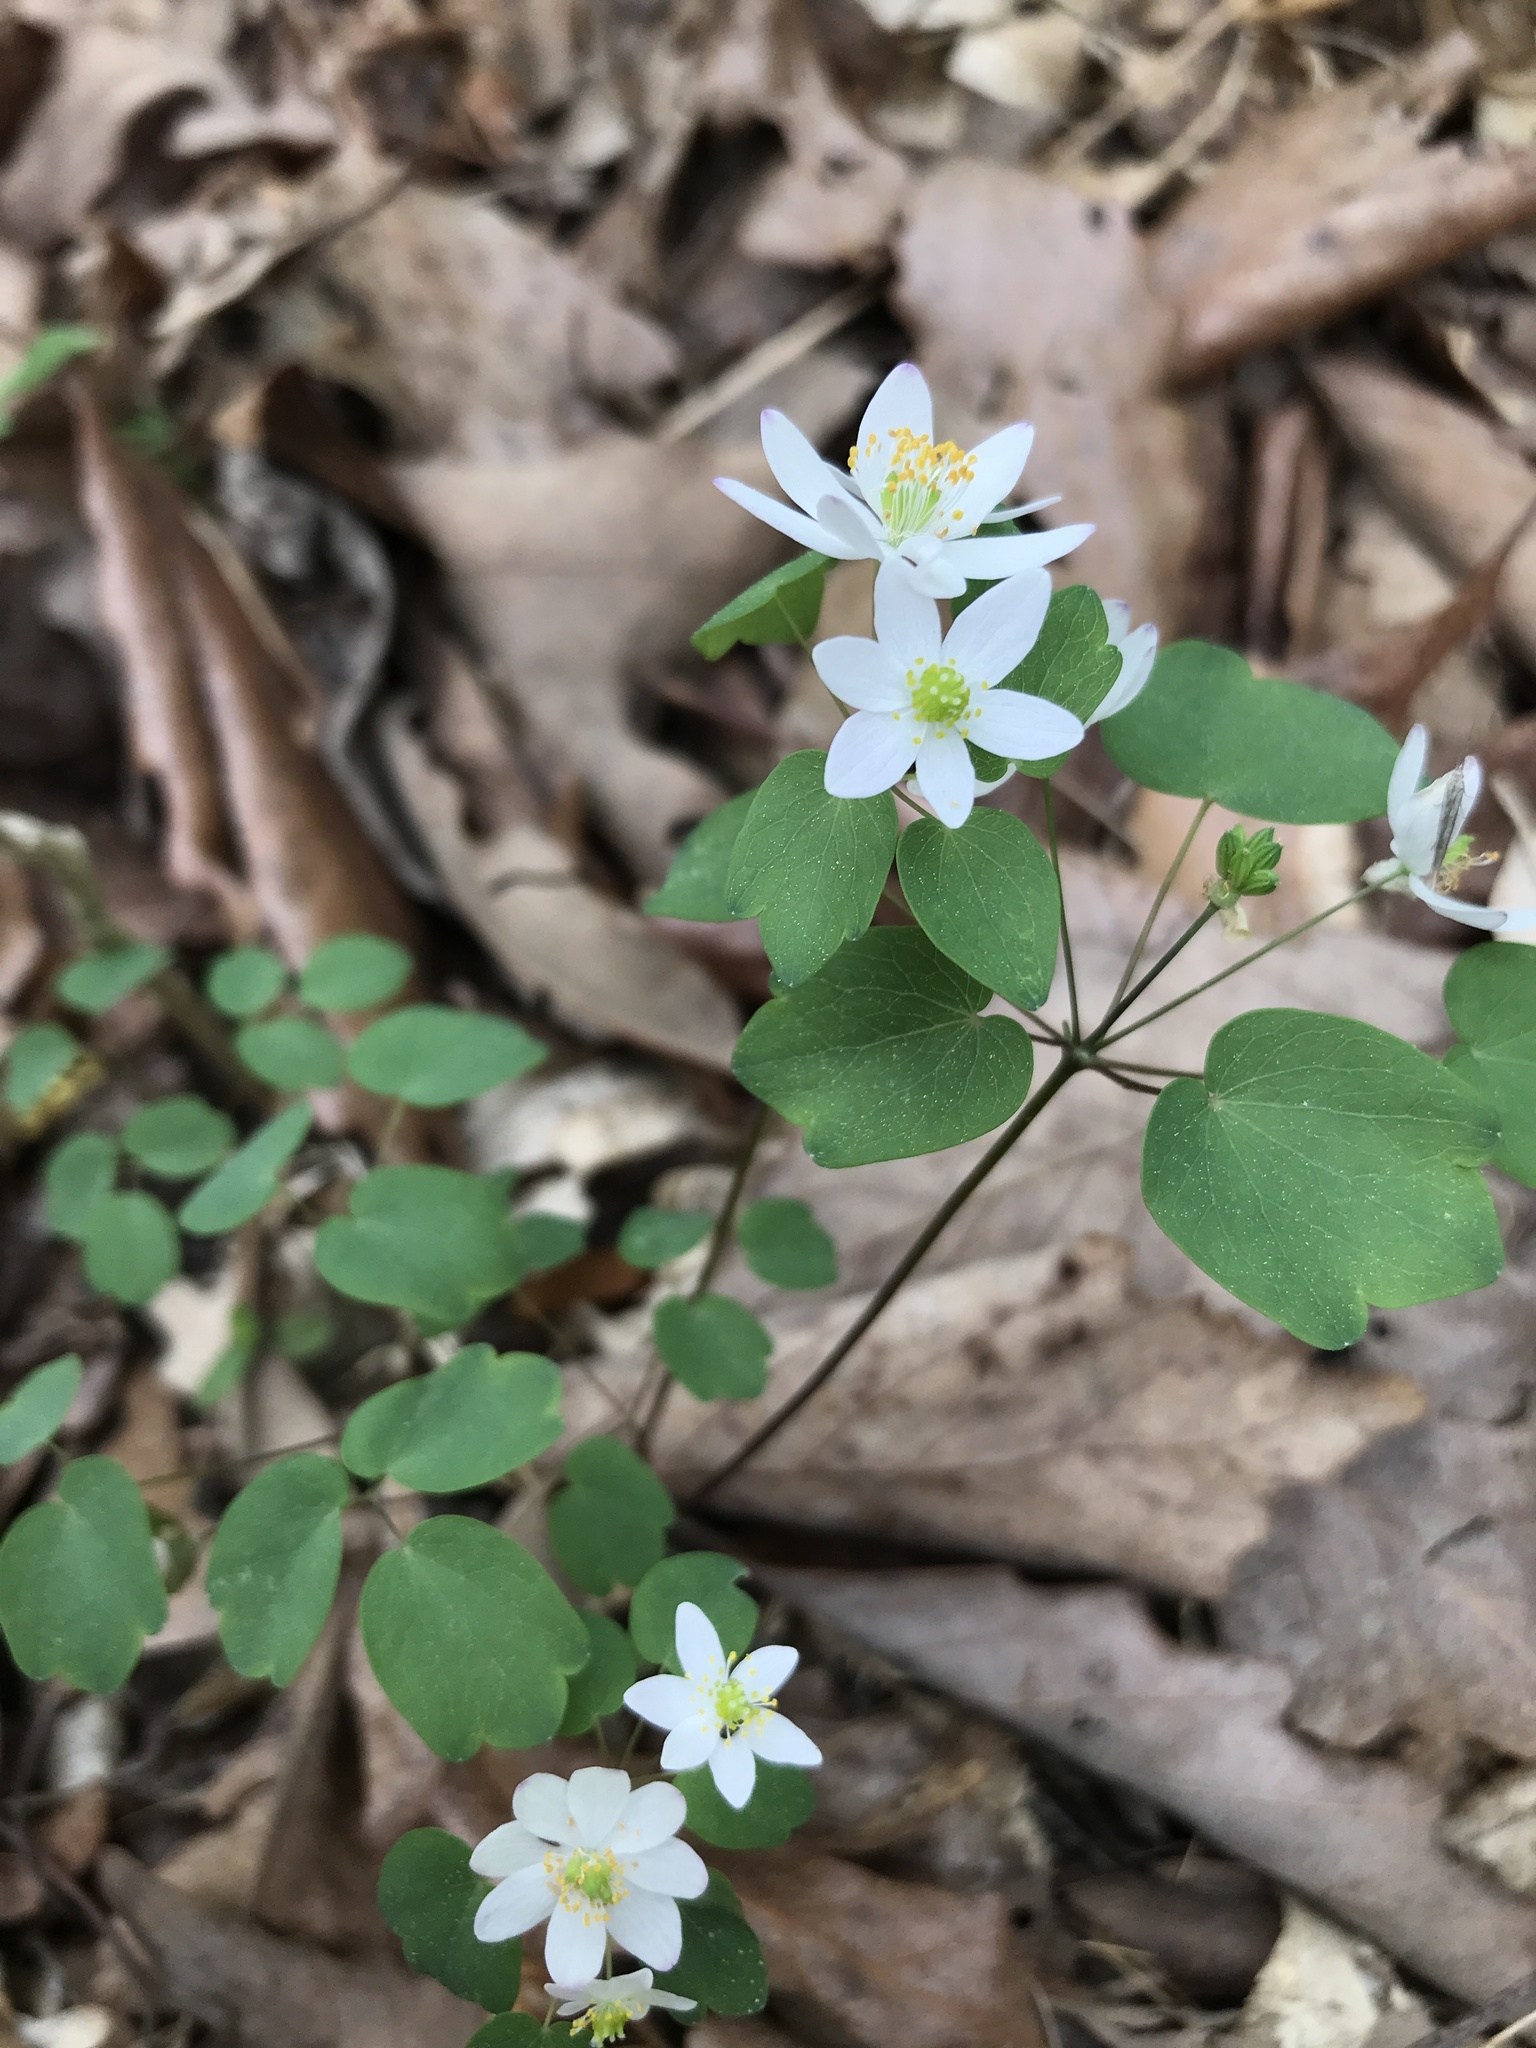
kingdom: Plantae
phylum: Tracheophyta
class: Magnoliopsida
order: Ranunculales
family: Ranunculaceae
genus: Thalictrum
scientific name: Thalictrum thalictroides
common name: Rue-anemone
